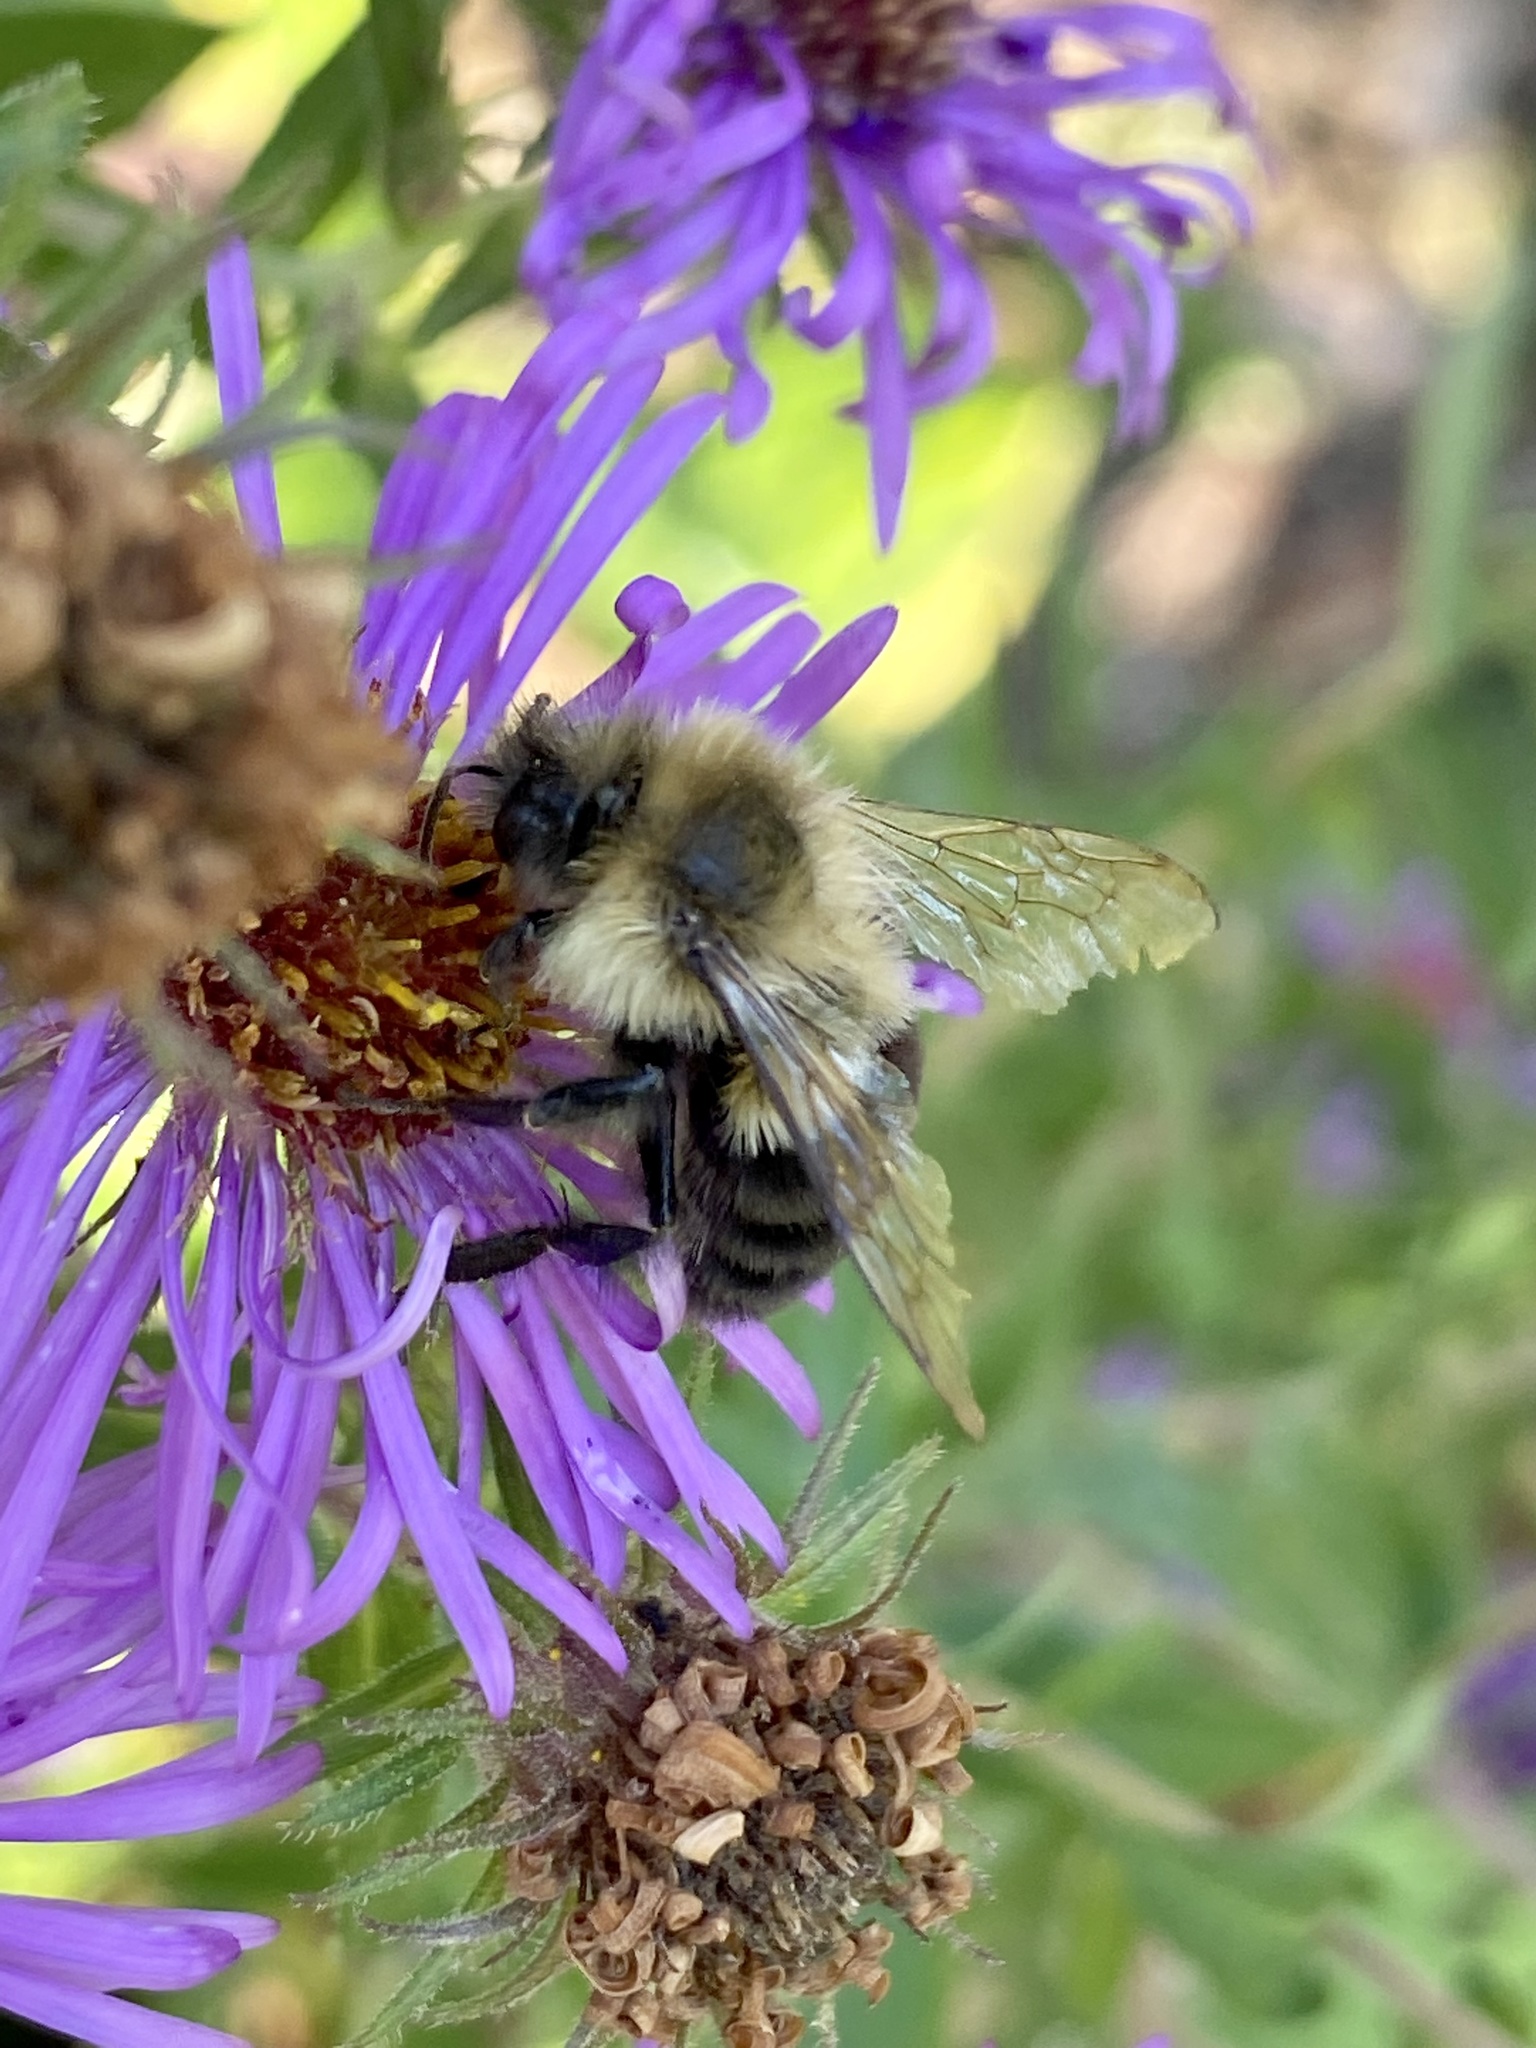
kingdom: Animalia
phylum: Arthropoda
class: Insecta
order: Hymenoptera
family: Apidae
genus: Bombus
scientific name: Bombus impatiens
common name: Common eastern bumble bee
